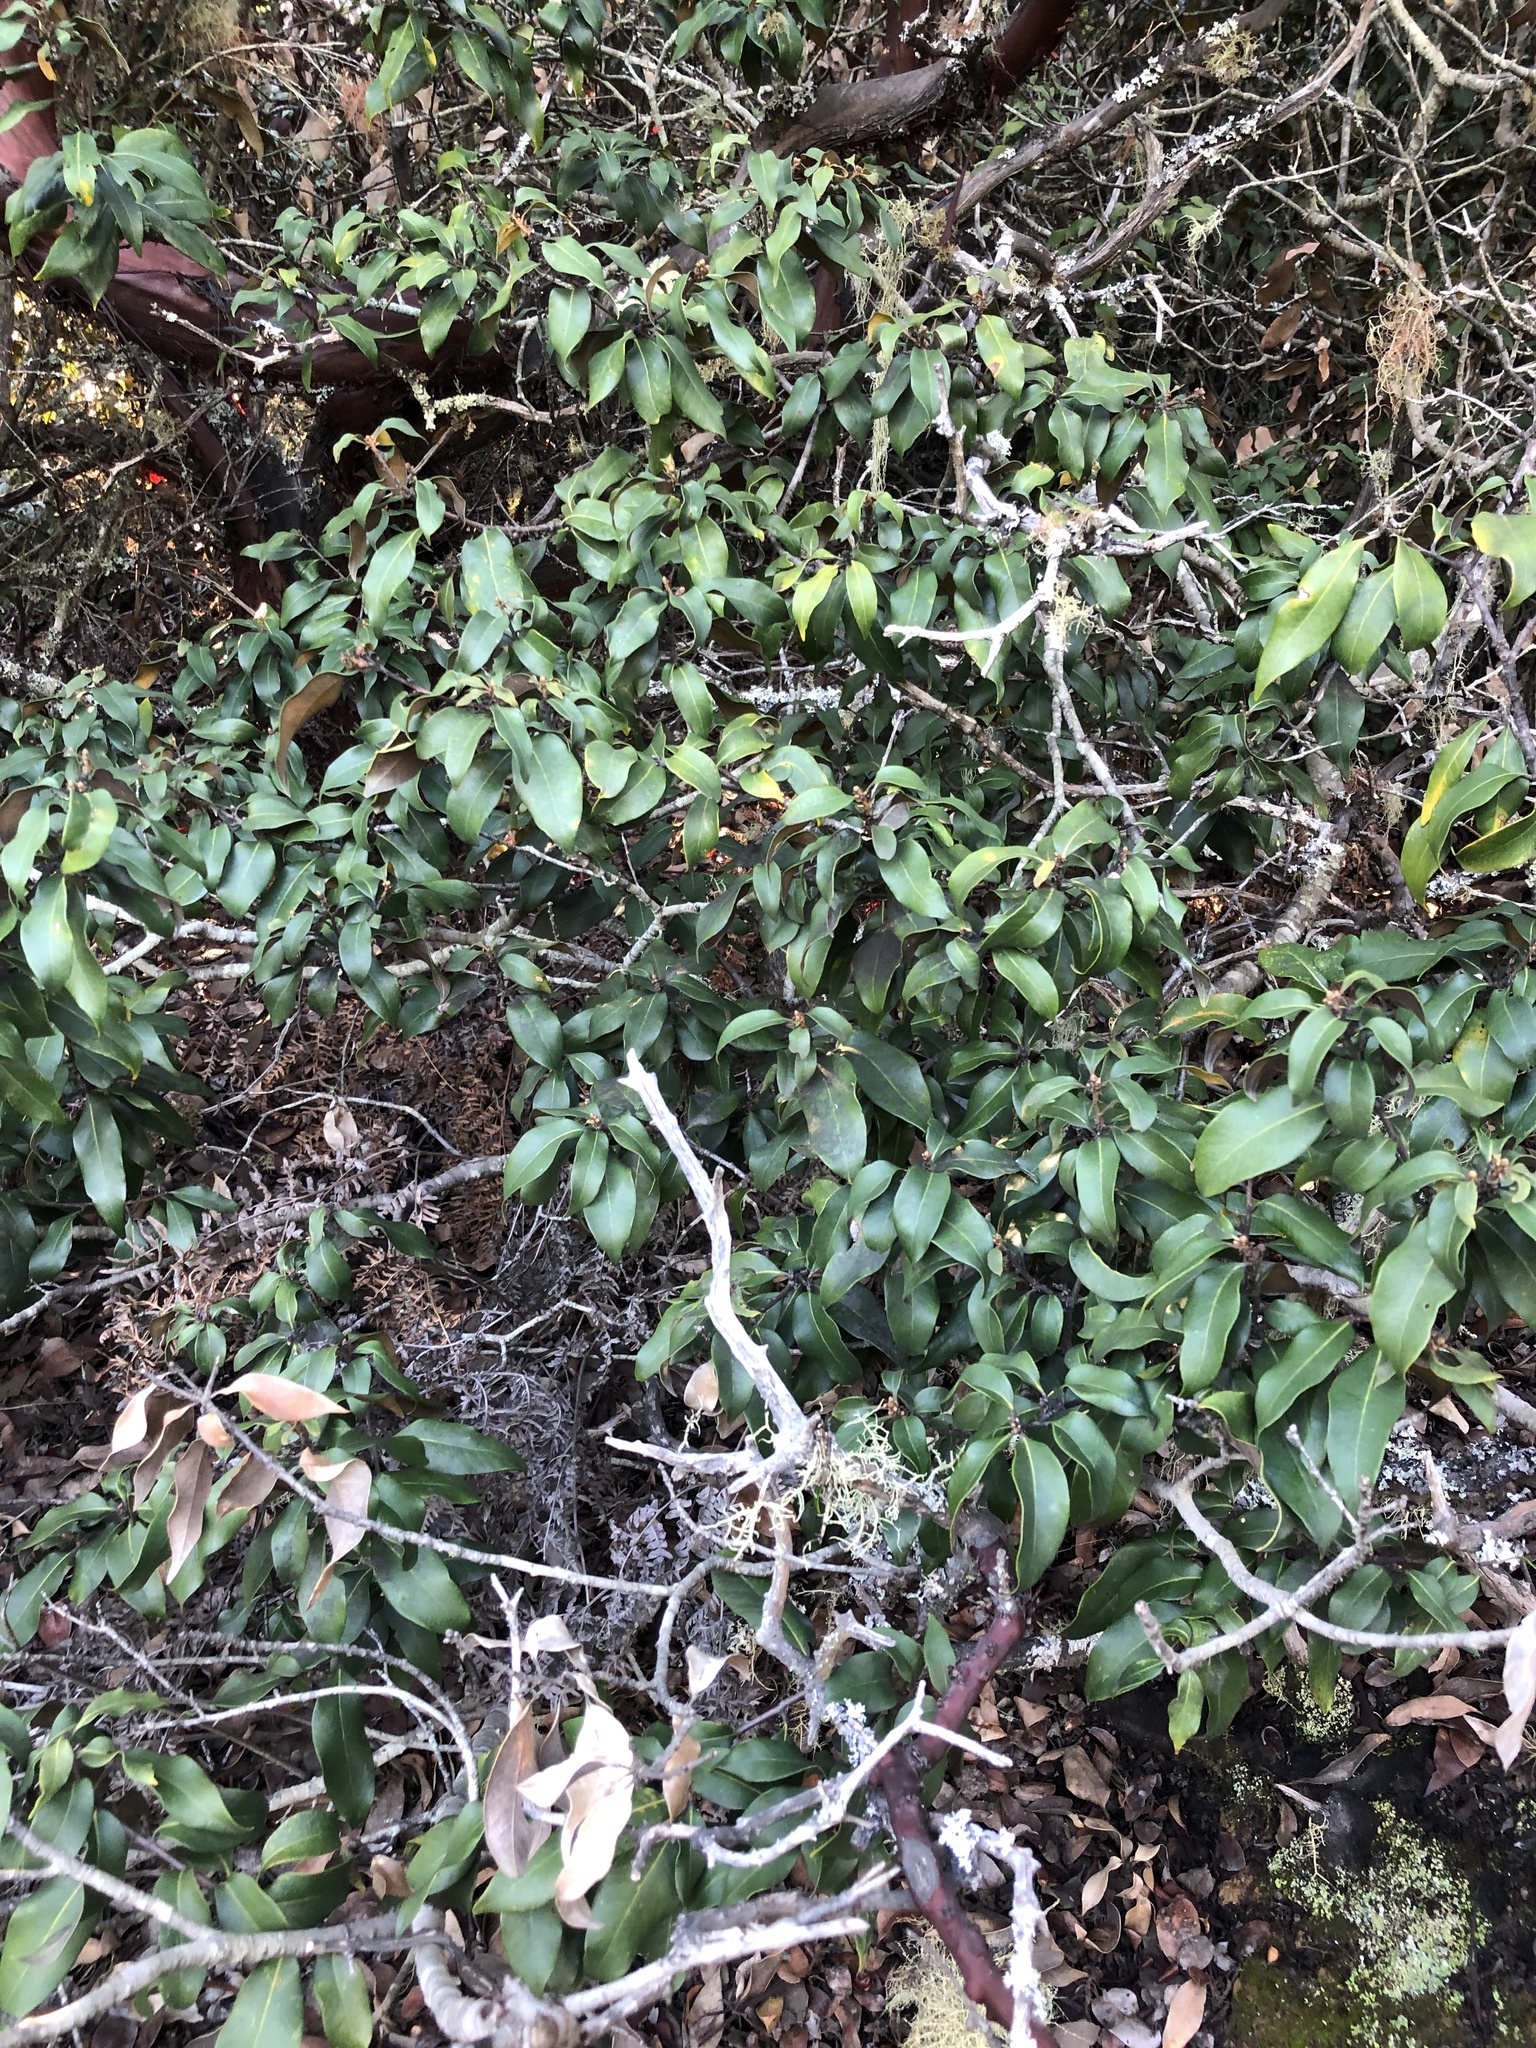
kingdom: Plantae
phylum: Tracheophyta
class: Magnoliopsida
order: Fagales
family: Fagaceae
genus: Chrysolepis
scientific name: Chrysolepis chrysophylla
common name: Giant chinquapin
